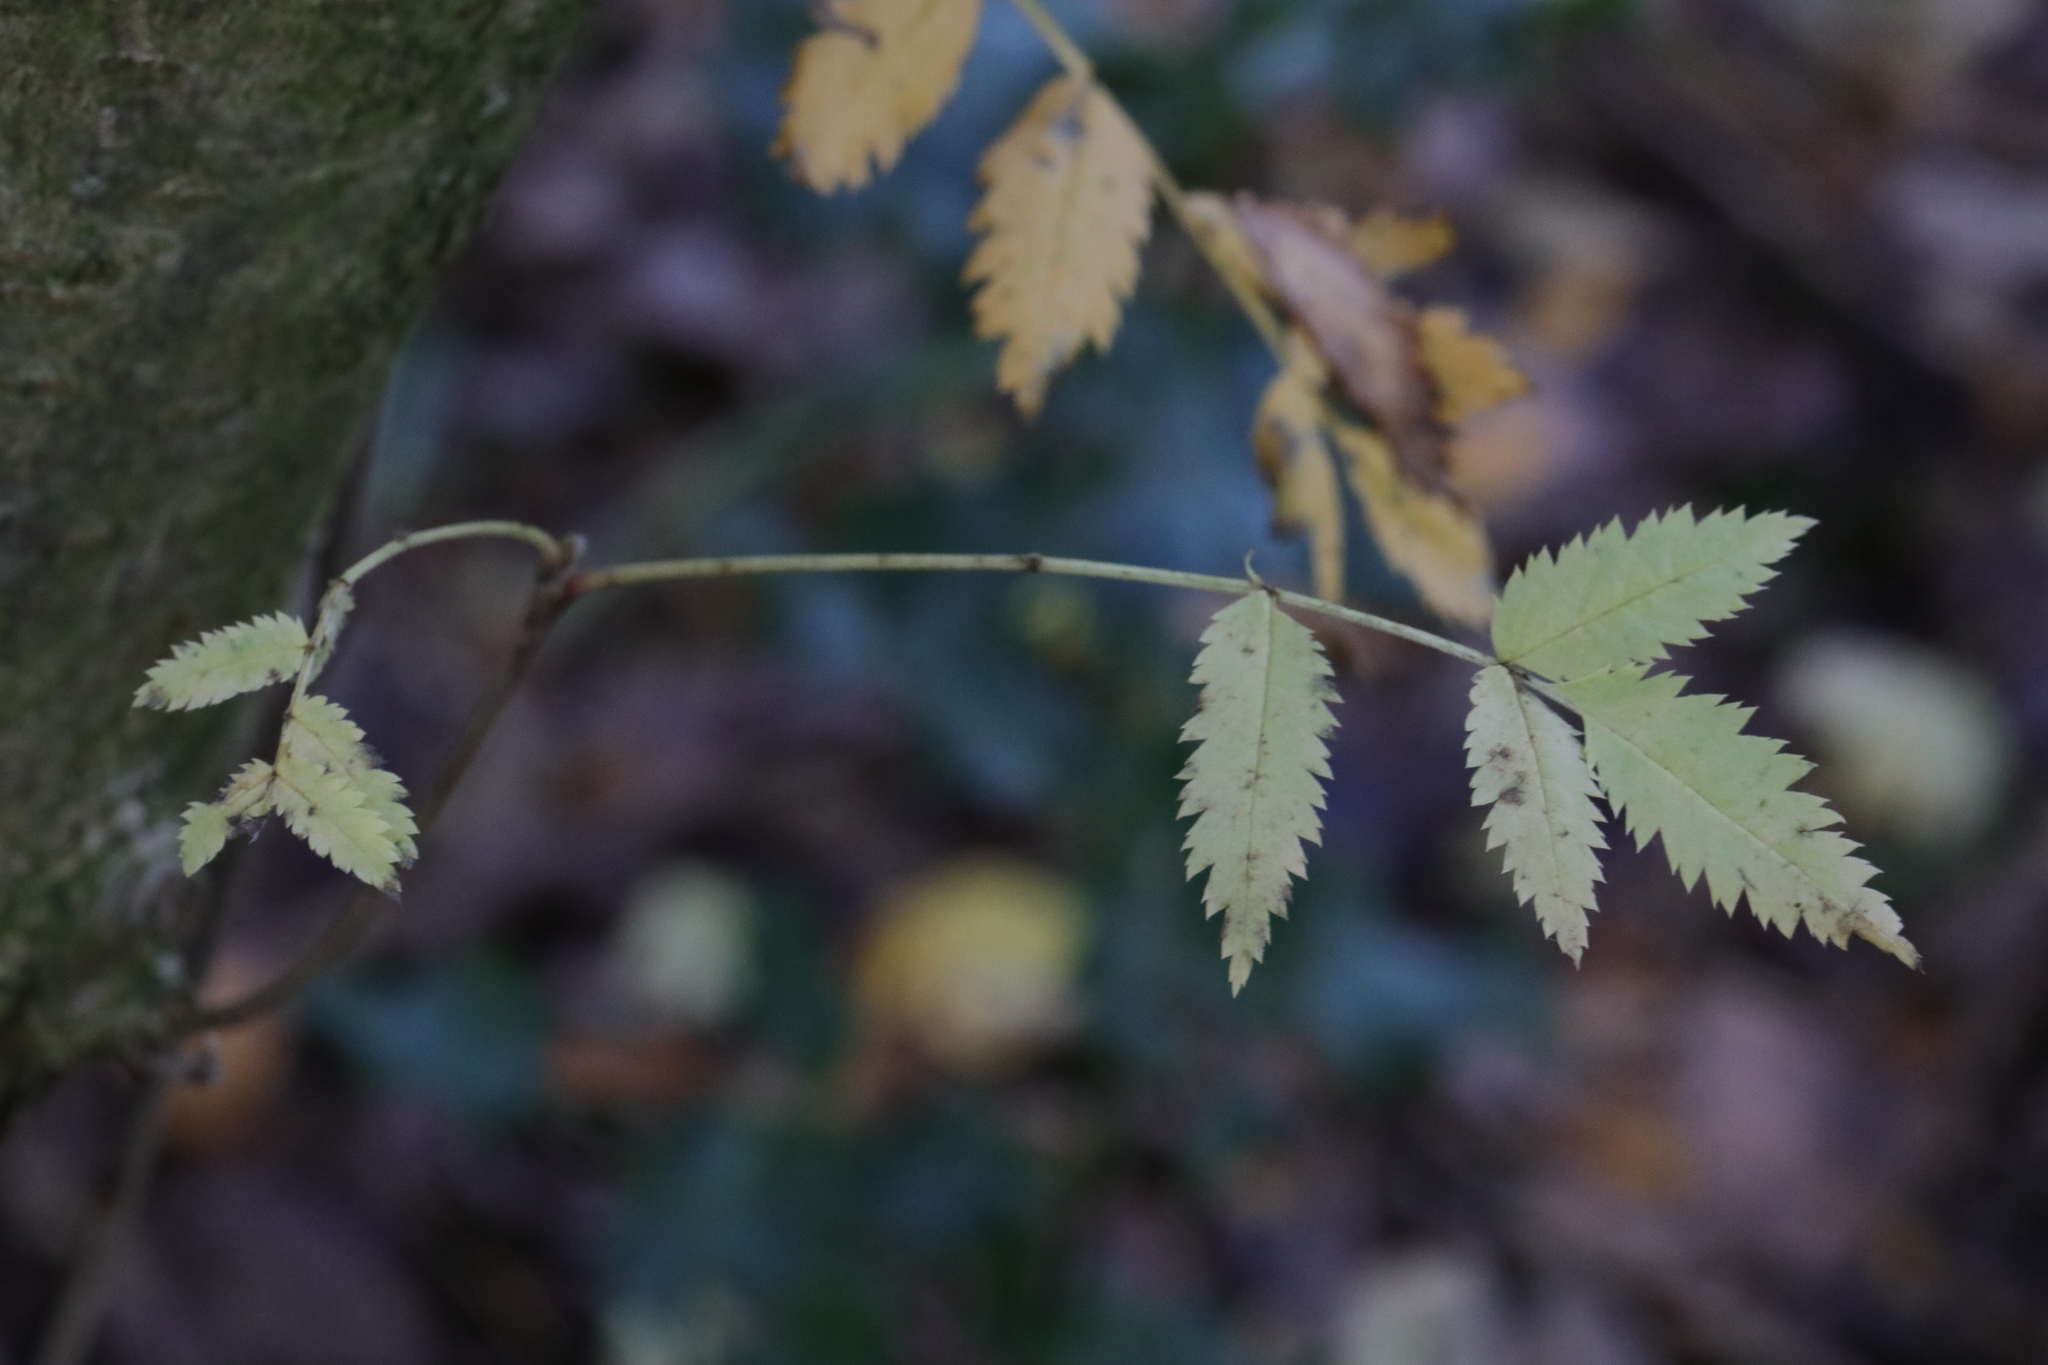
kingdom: Plantae
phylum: Tracheophyta
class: Magnoliopsida
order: Rosales
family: Rosaceae
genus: Sorbus
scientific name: Sorbus aucuparia
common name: Rowan
